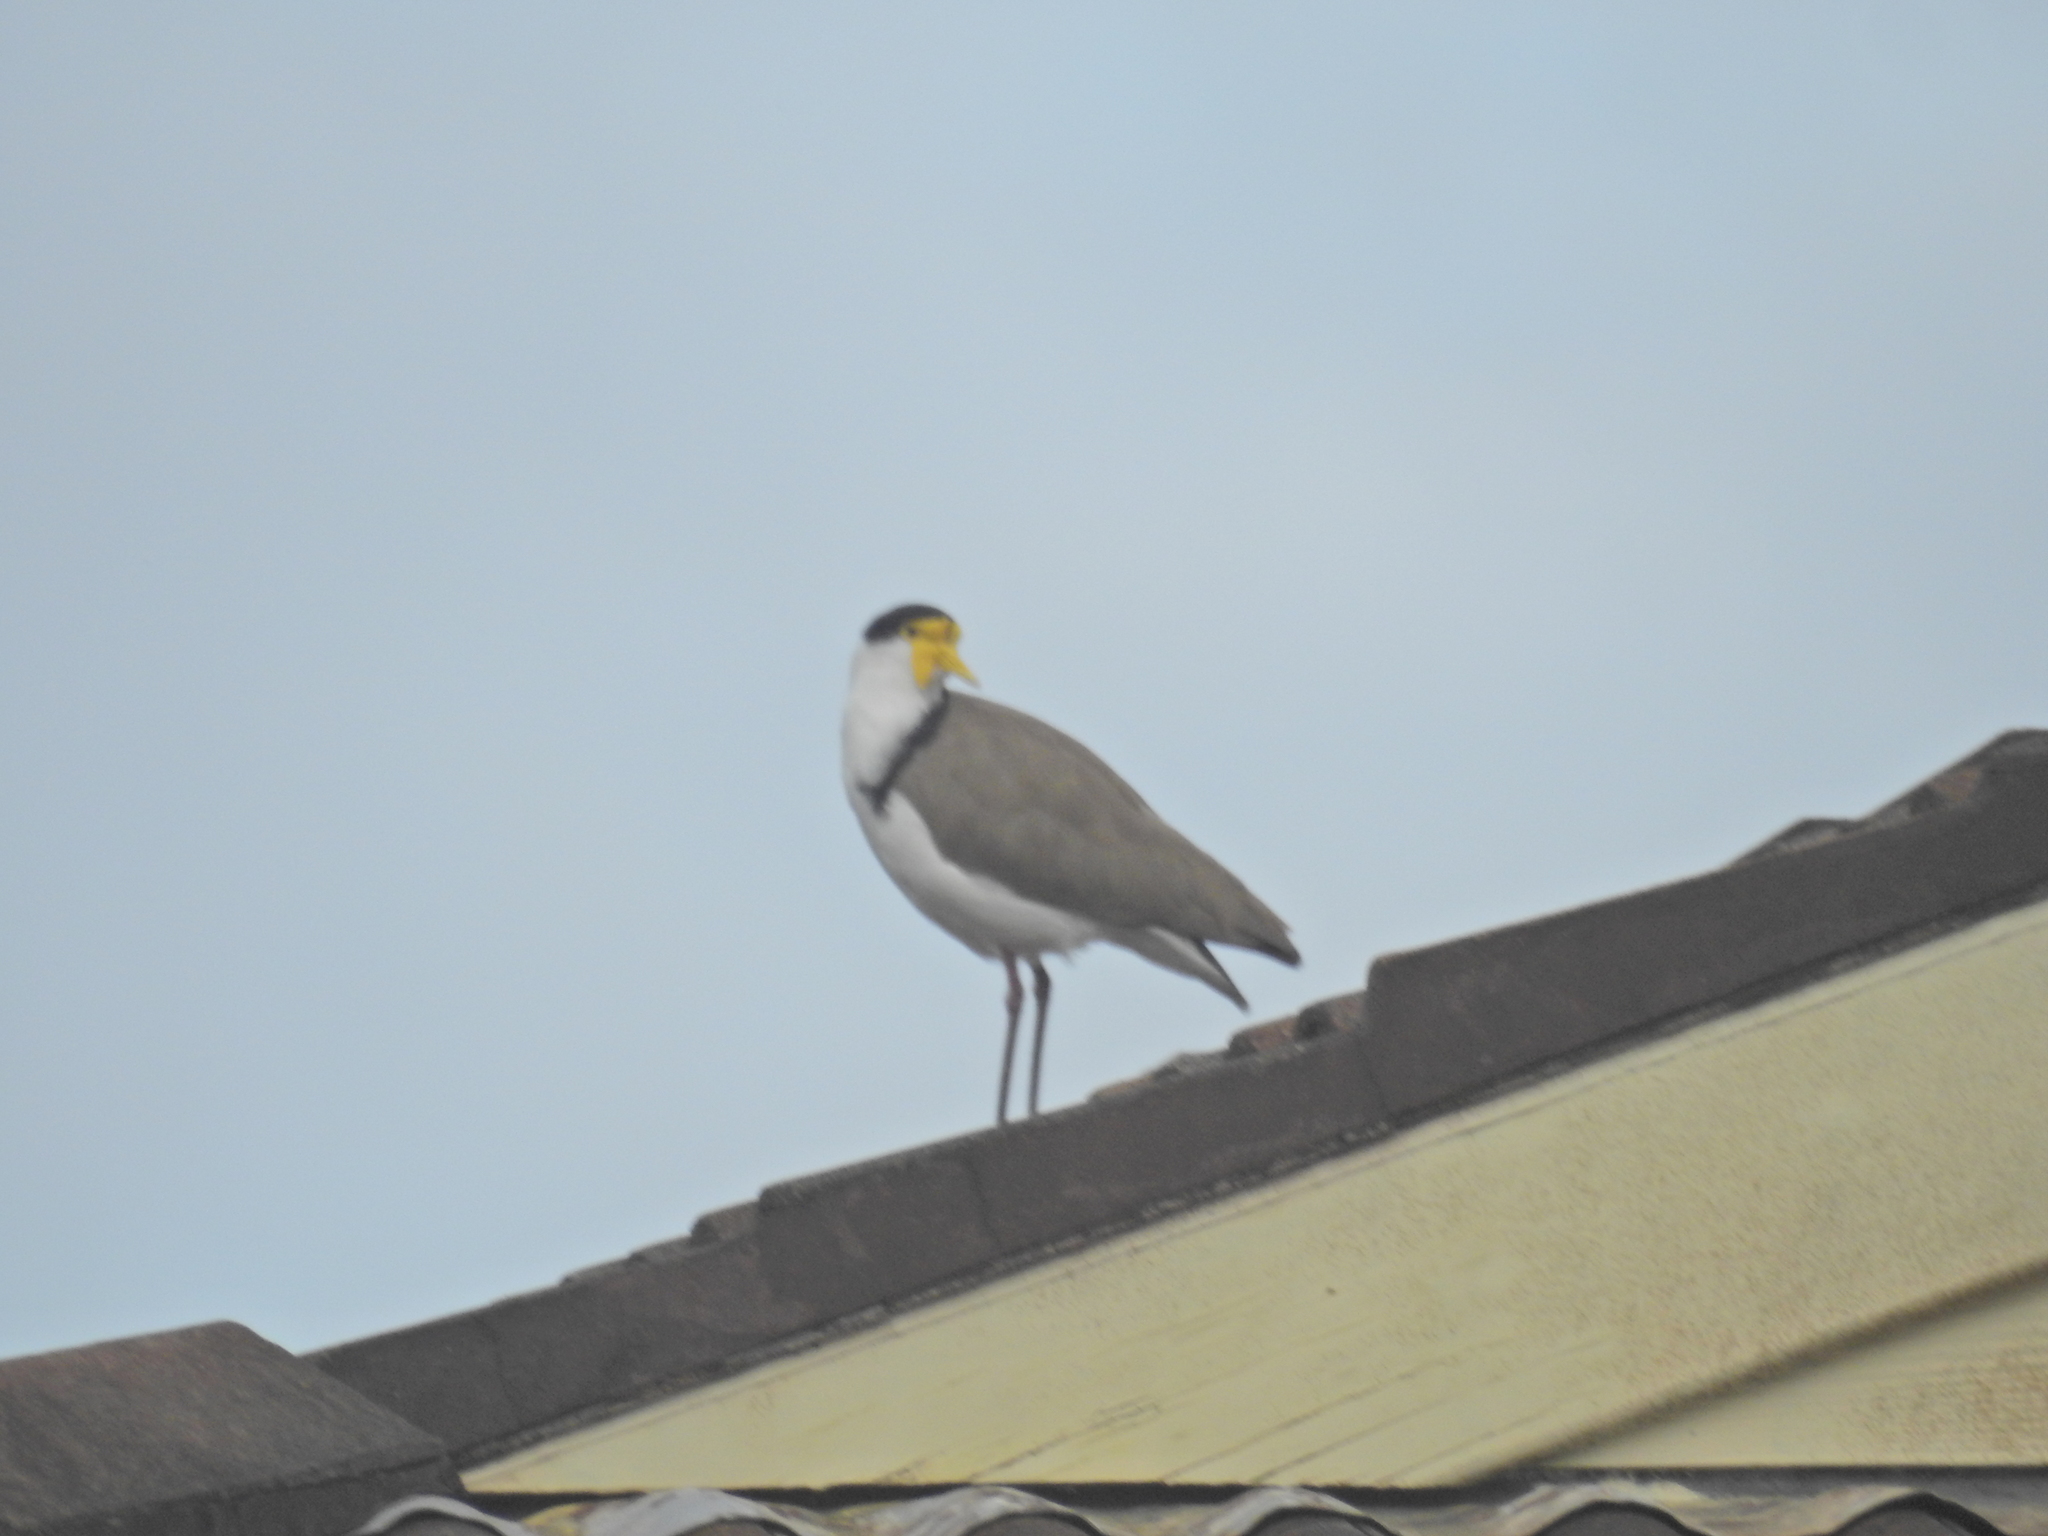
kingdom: Animalia
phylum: Chordata
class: Aves
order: Charadriiformes
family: Charadriidae
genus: Vanellus
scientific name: Vanellus miles
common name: Masked lapwing
